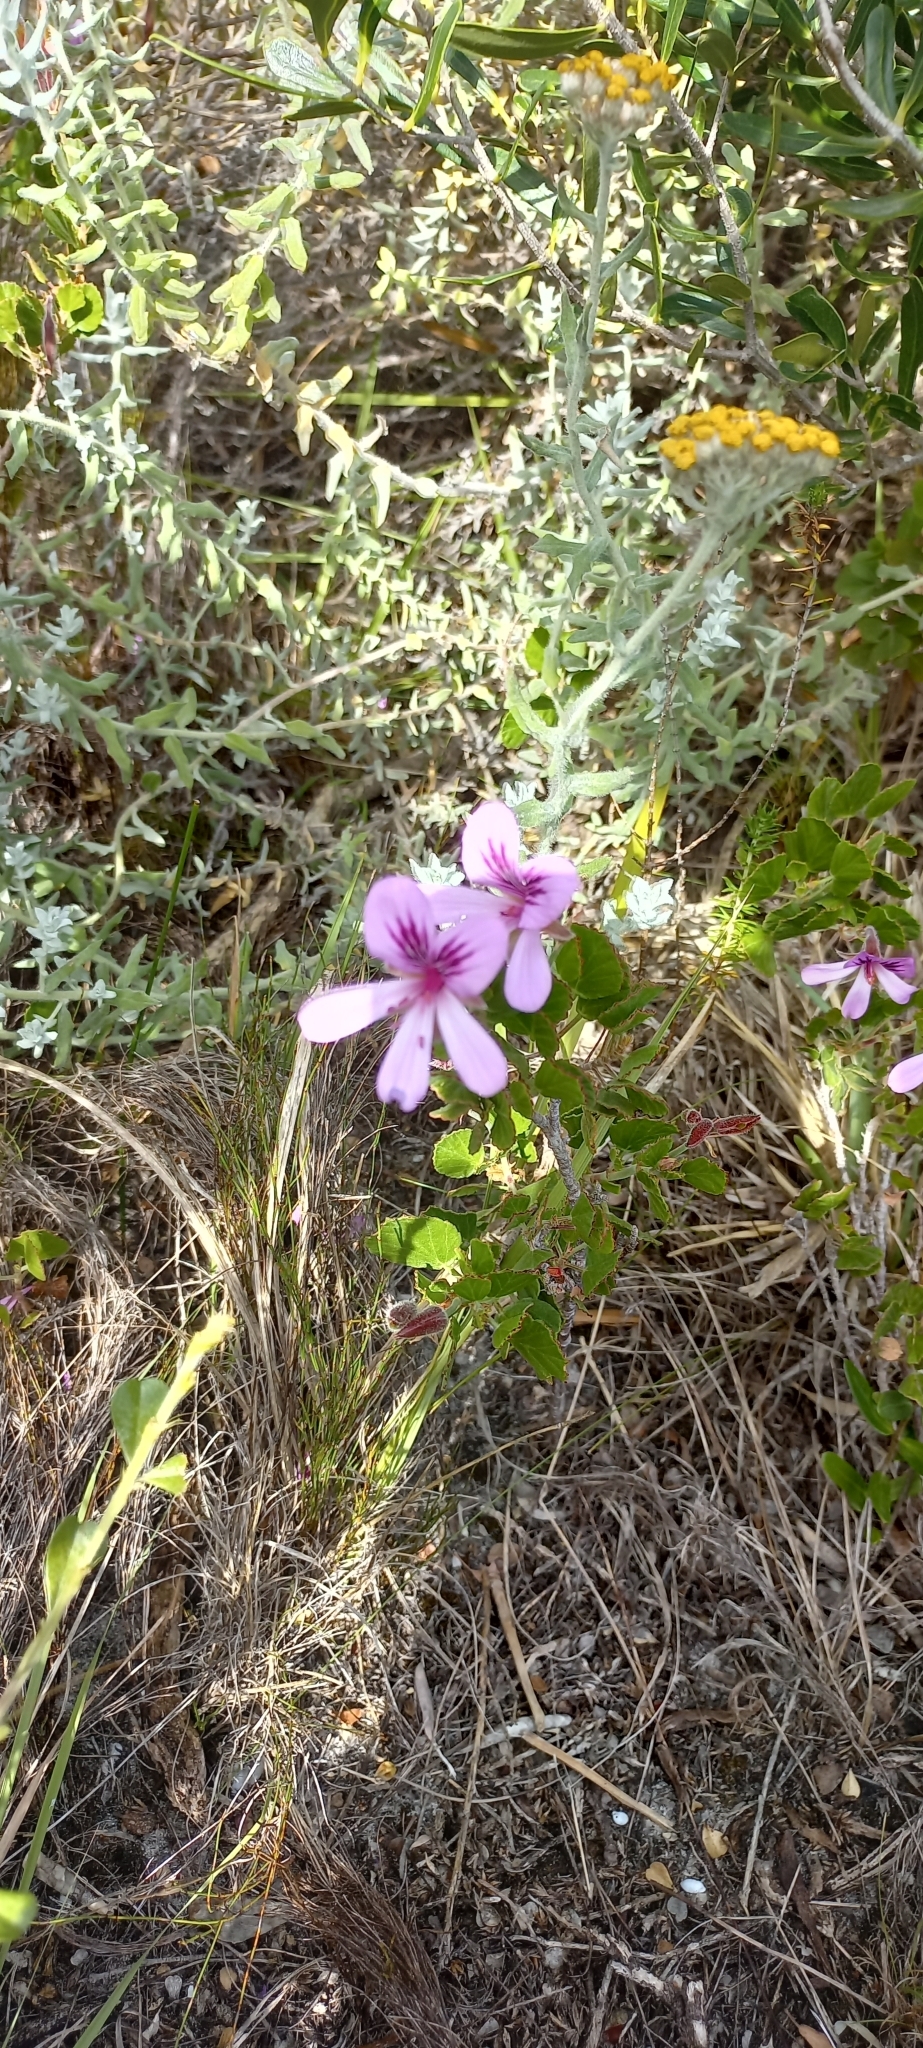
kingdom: Plantae
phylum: Tracheophyta
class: Magnoliopsida
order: Geraniales
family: Geraniaceae
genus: Pelargonium
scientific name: Pelargonium betulinum
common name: Birch-leaf pelargonium
